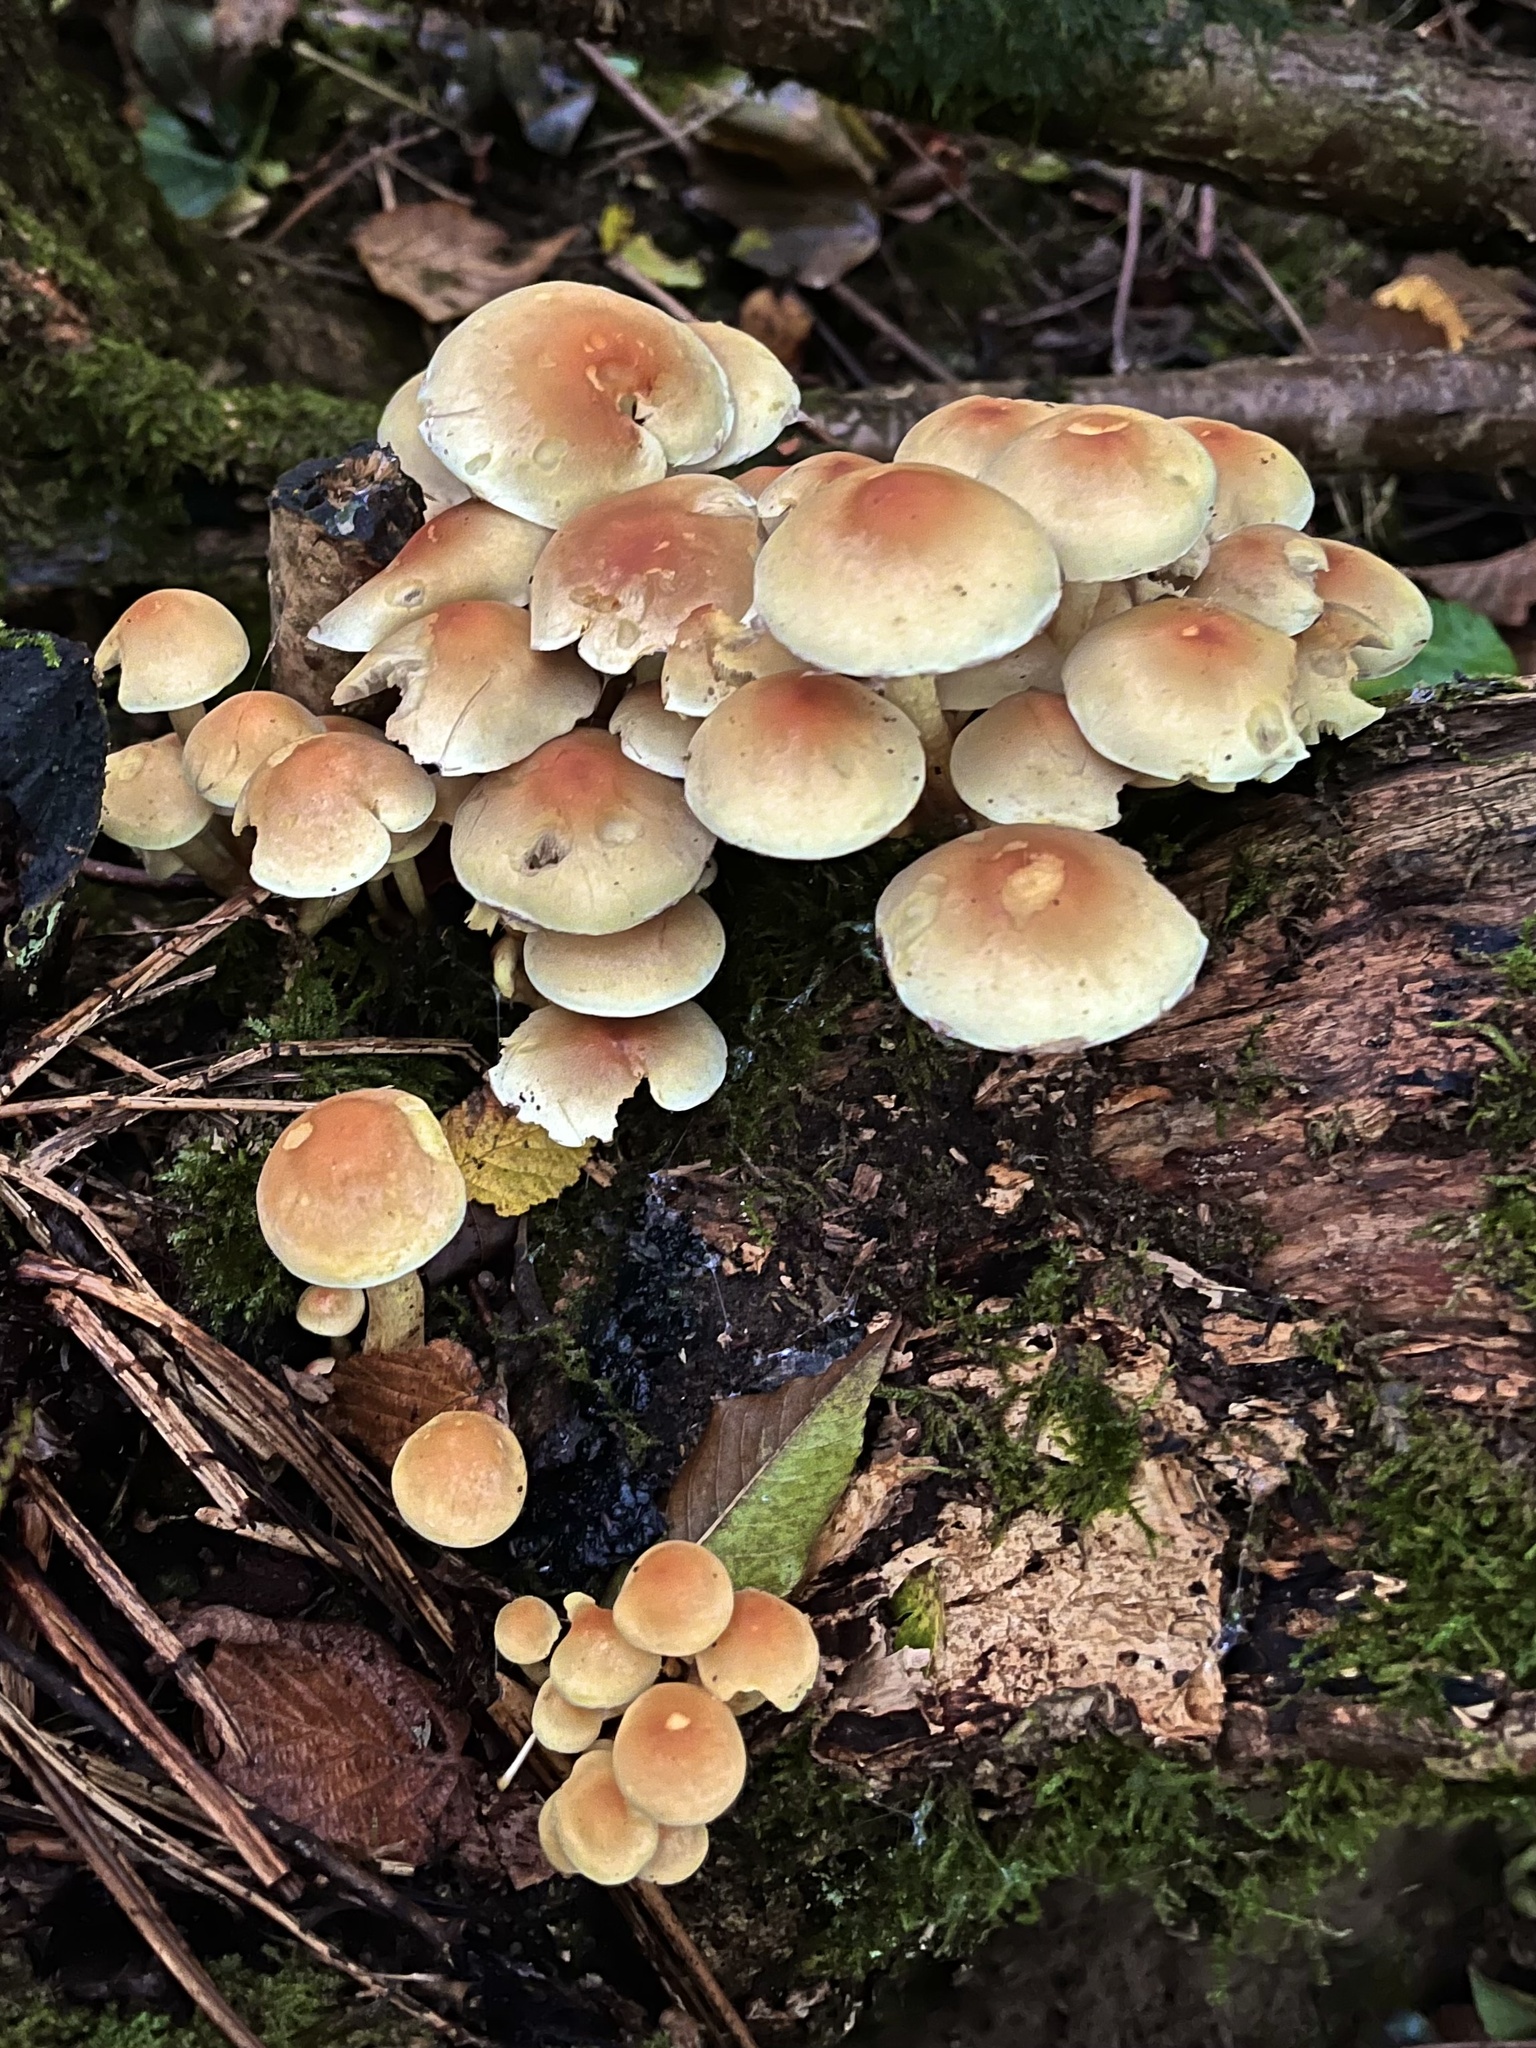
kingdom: Fungi
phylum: Basidiomycota
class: Agaricomycetes
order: Agaricales
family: Strophariaceae
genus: Hypholoma
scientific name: Hypholoma fasciculare
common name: Sulphur tuft
